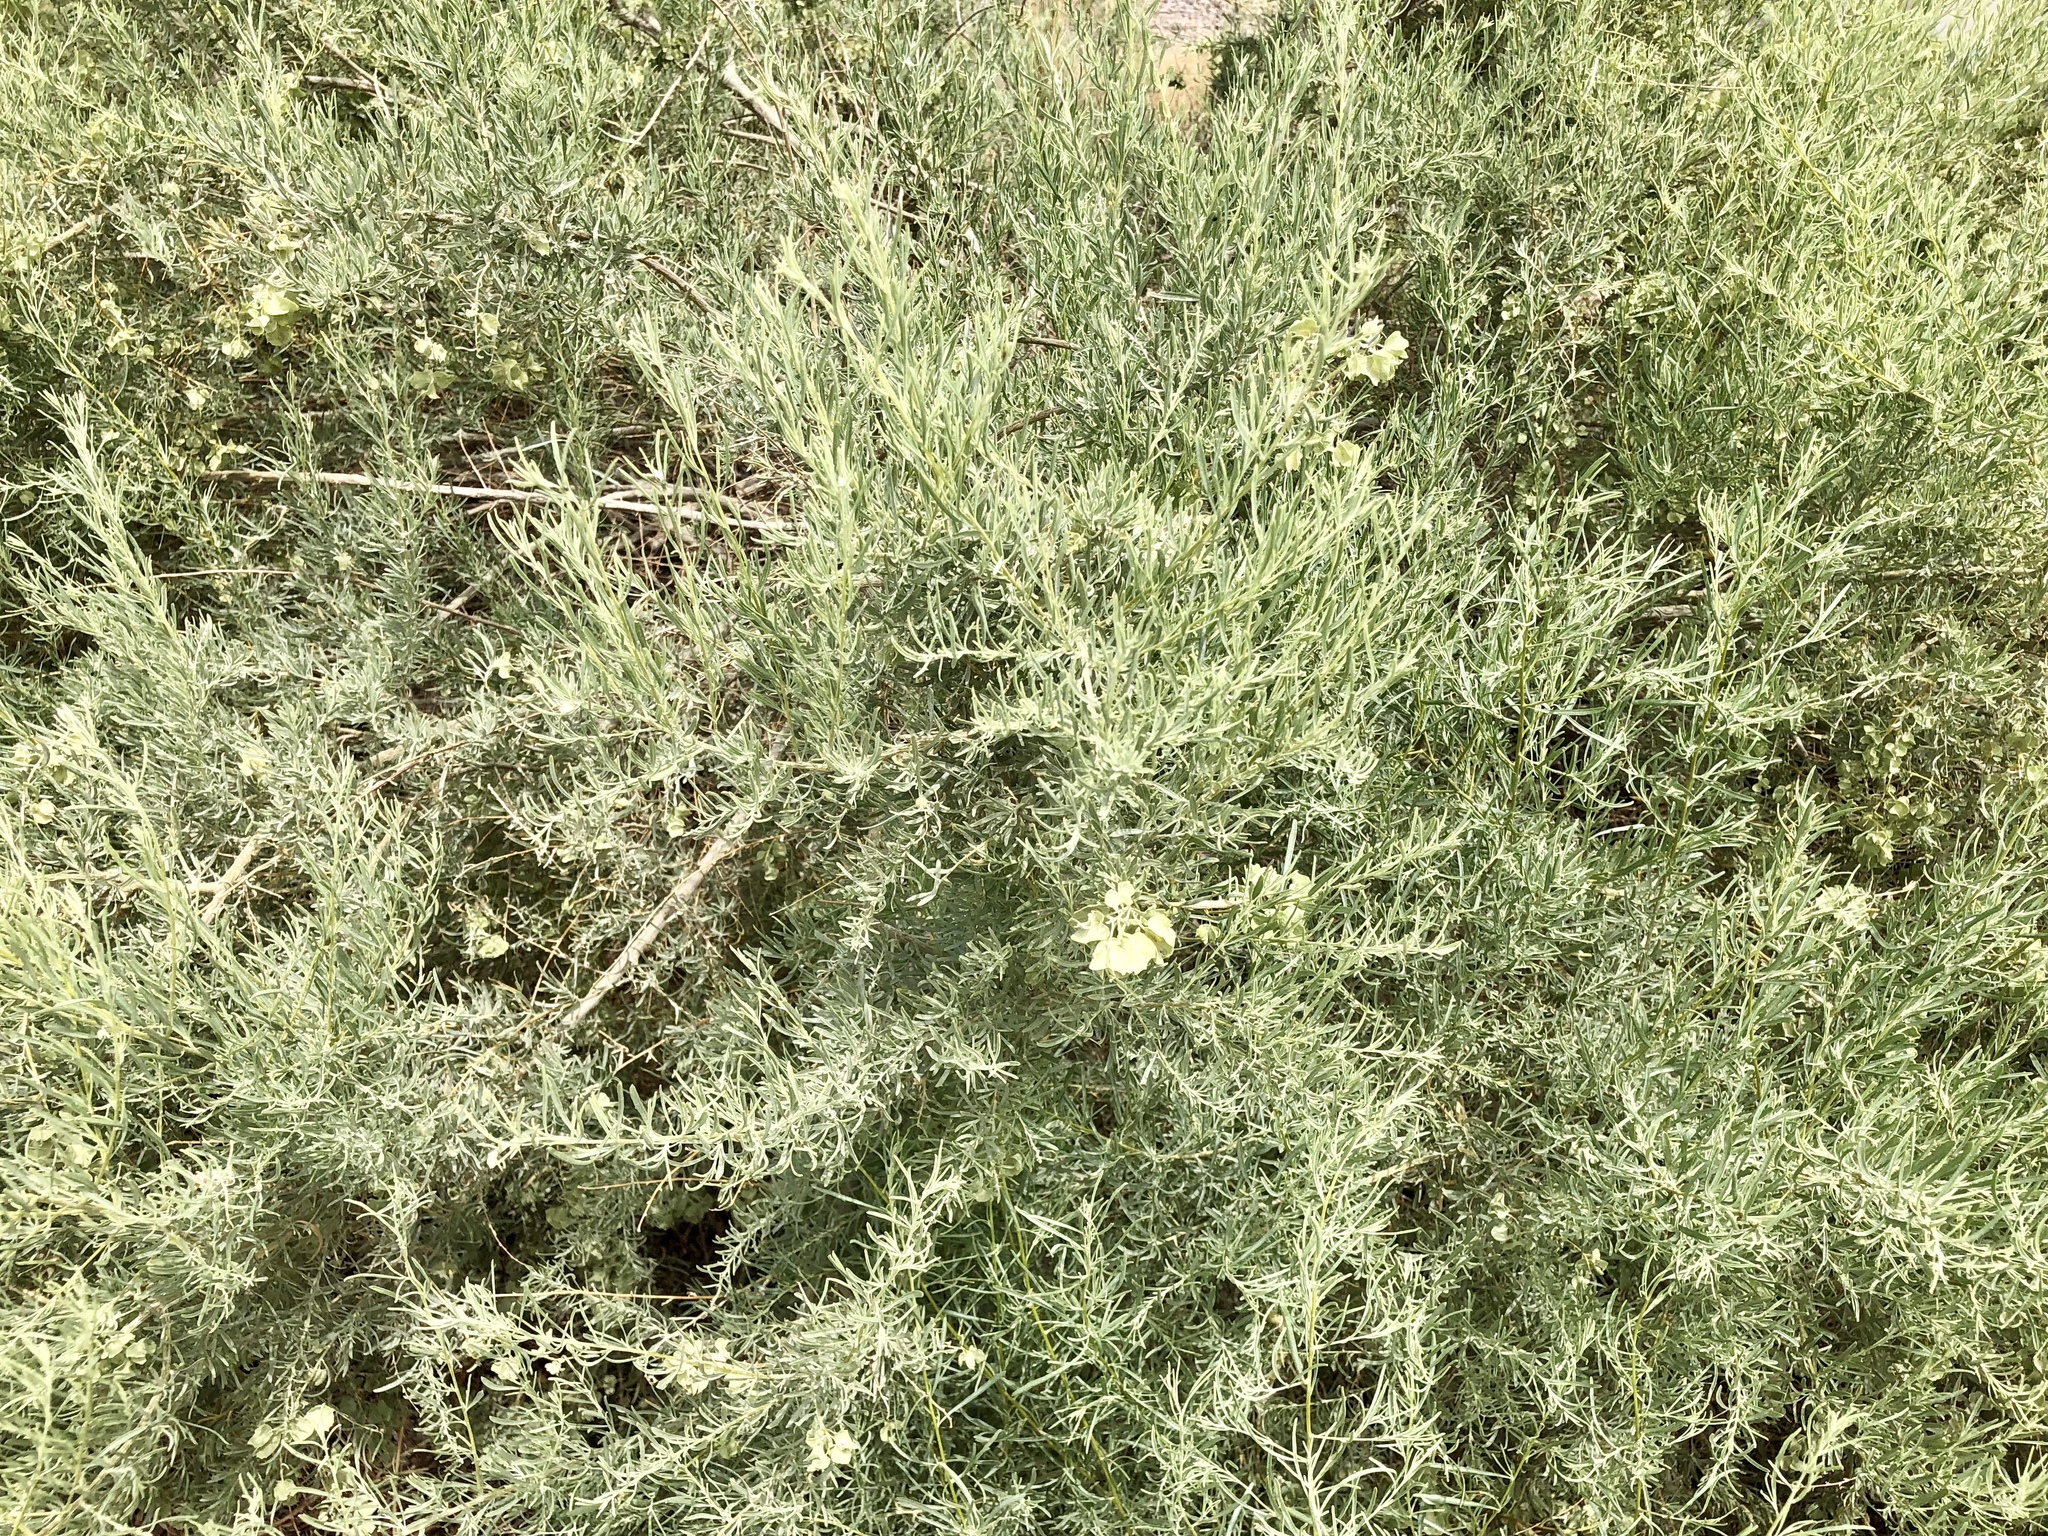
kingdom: Plantae
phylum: Tracheophyta
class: Magnoliopsida
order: Caryophyllales
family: Amaranthaceae
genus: Atriplex
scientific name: Atriplex canescens
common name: Four-wing saltbush
